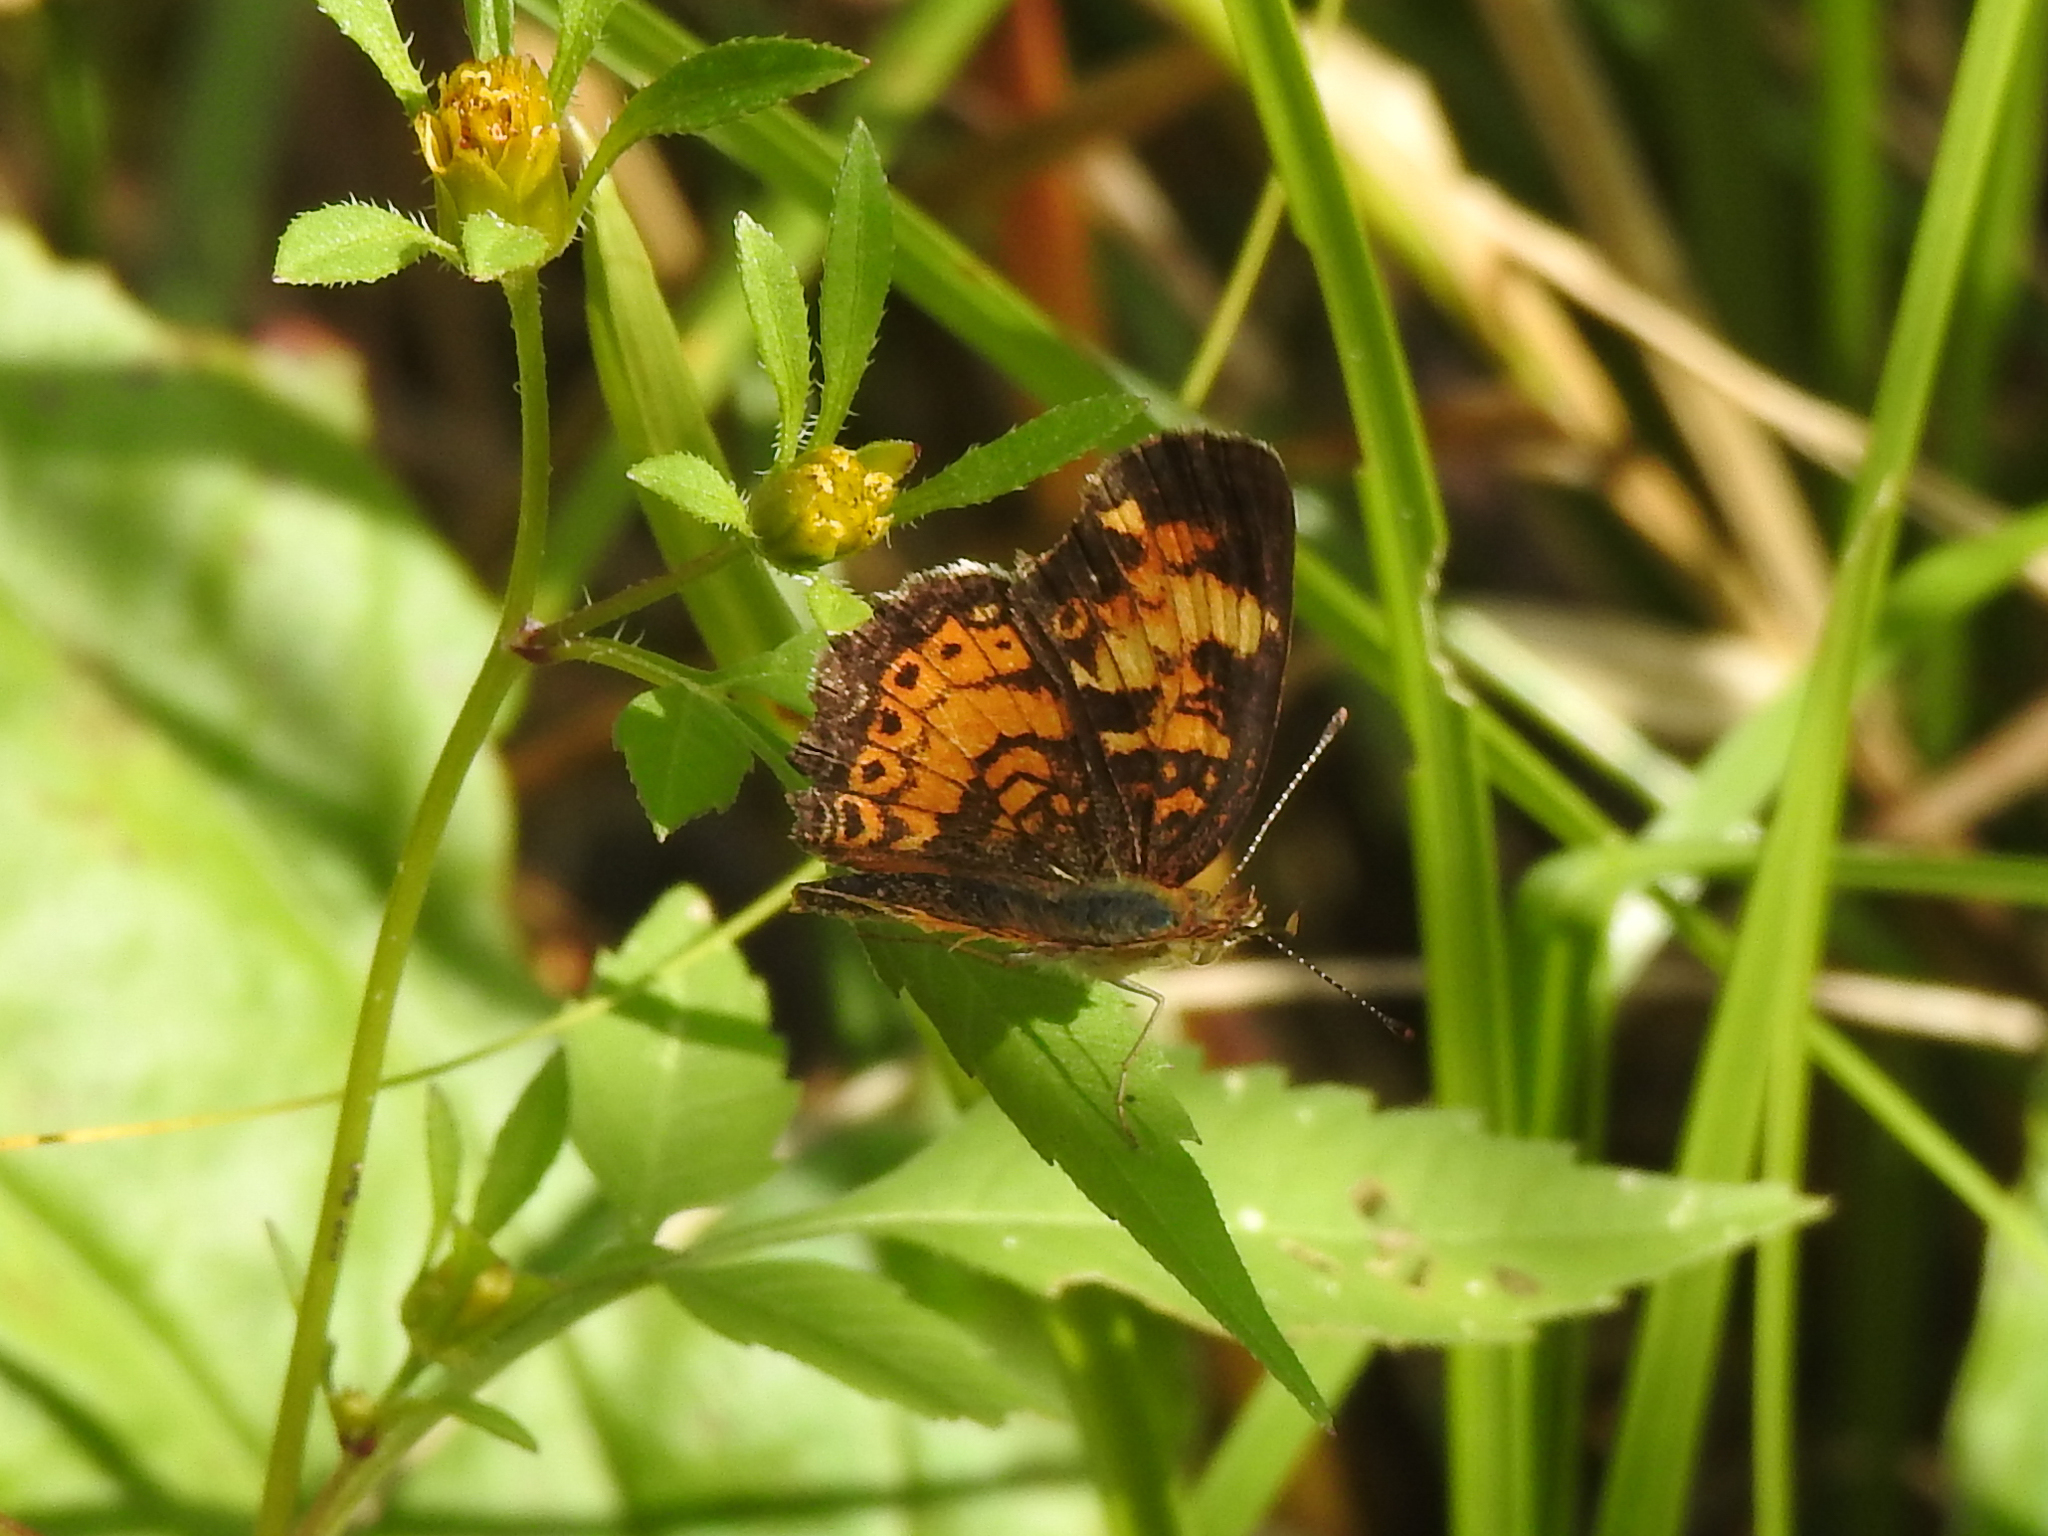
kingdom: Animalia
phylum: Arthropoda
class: Insecta
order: Lepidoptera
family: Nymphalidae
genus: Phyciodes
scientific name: Phyciodes tharos
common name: Pearl crescent
